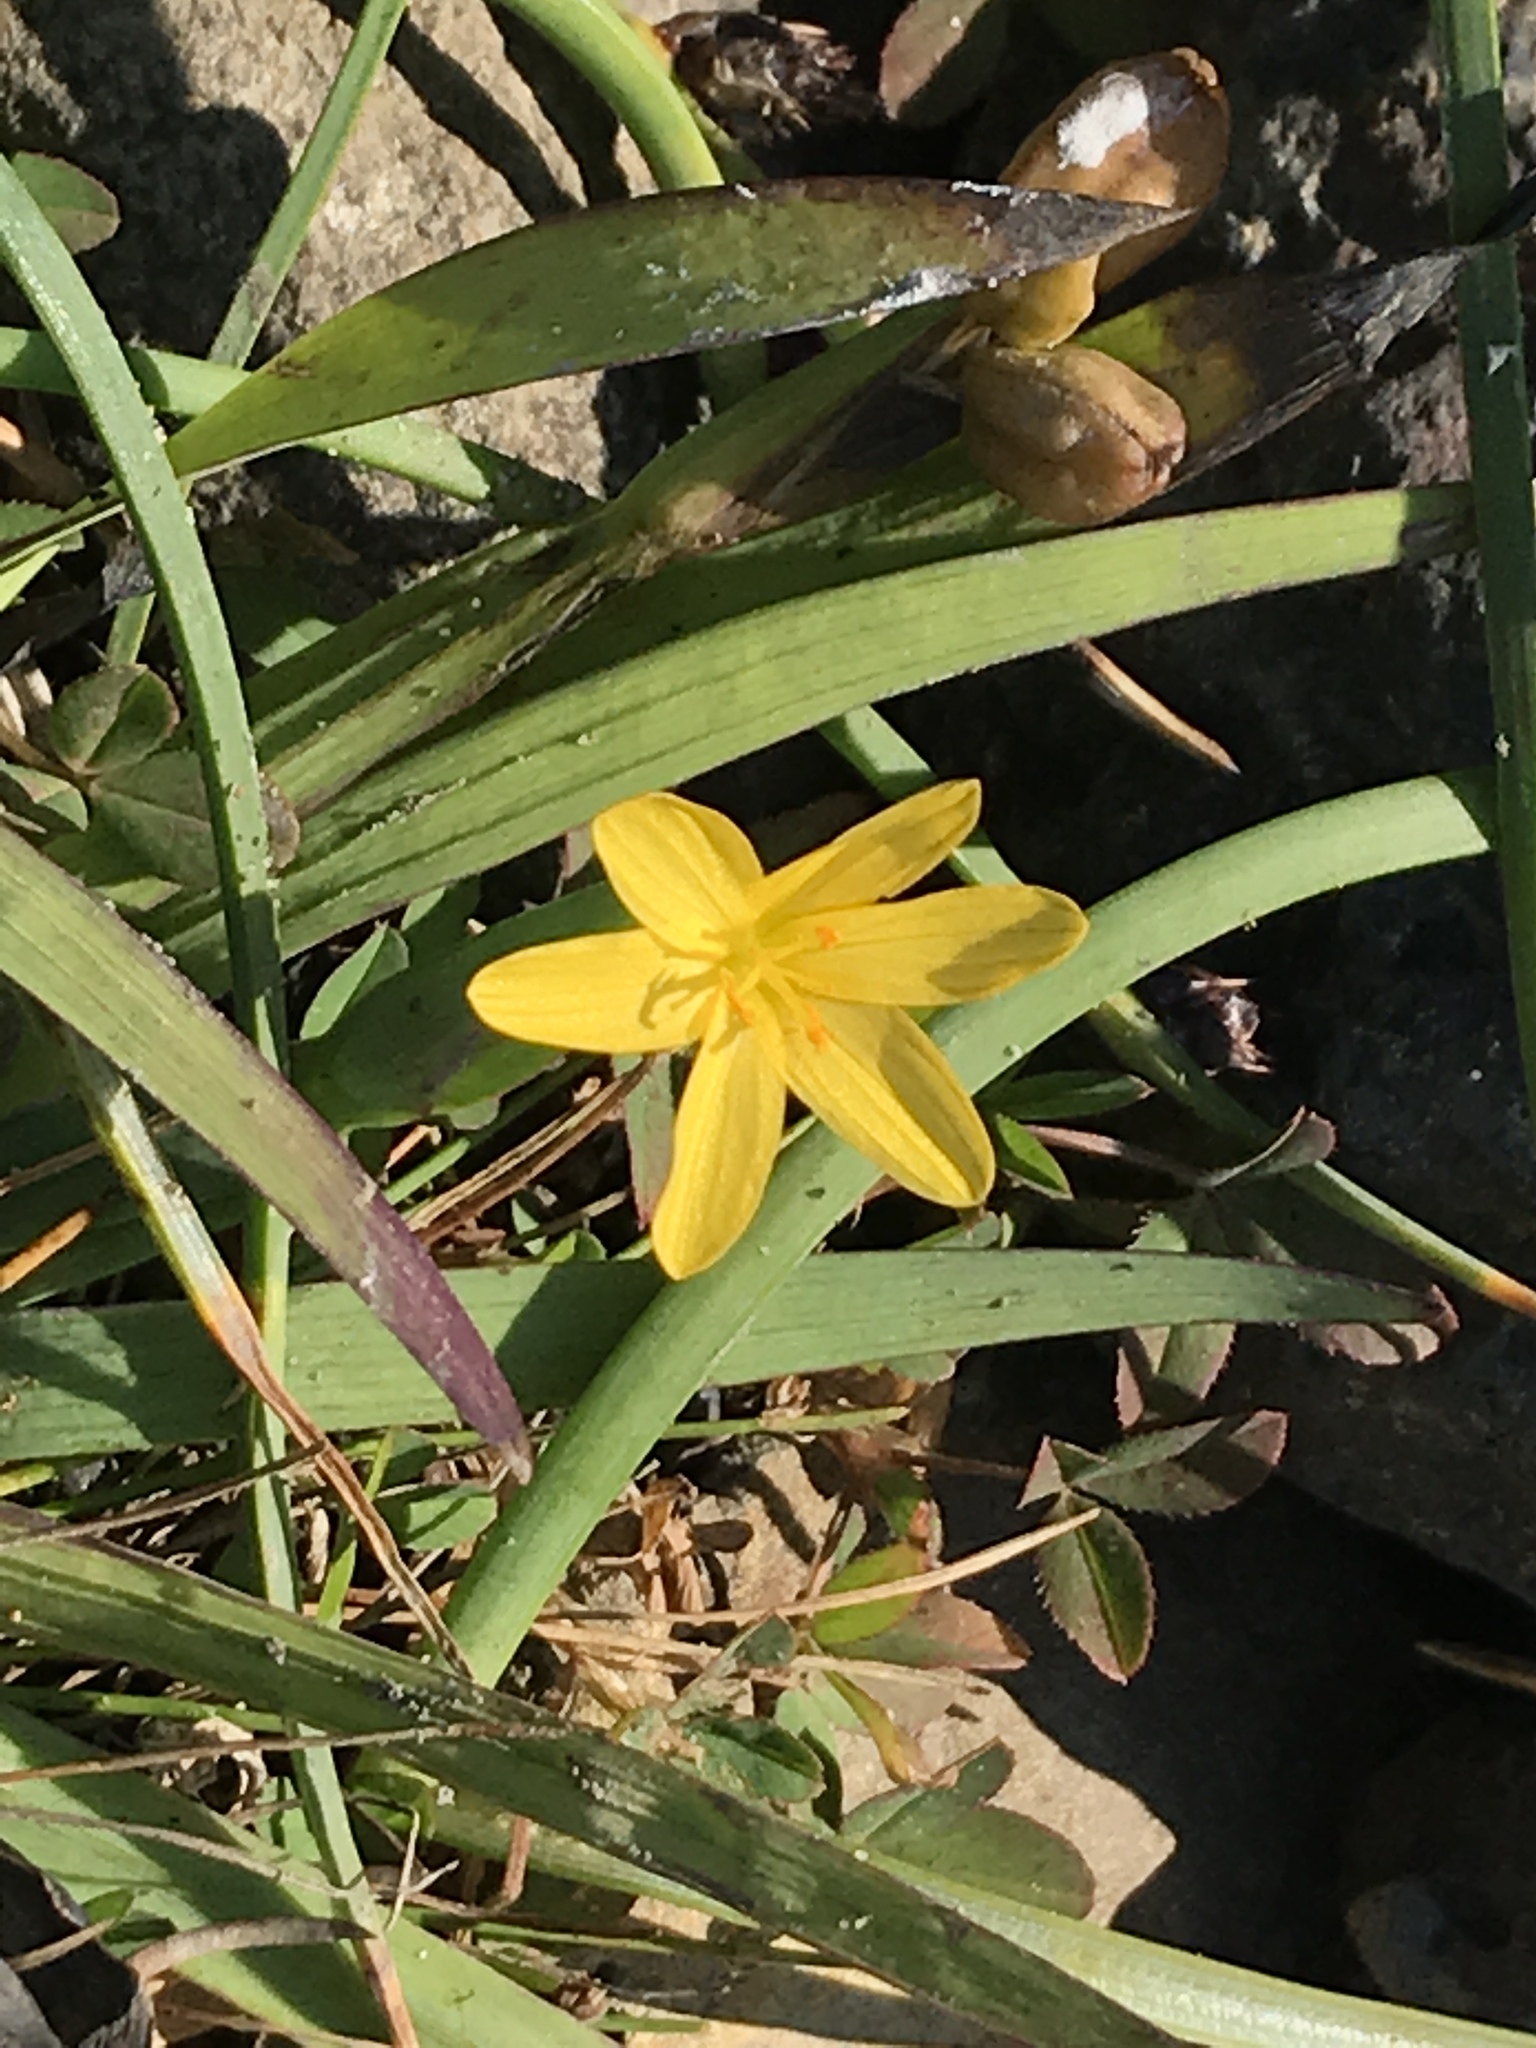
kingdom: Plantae
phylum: Tracheophyta
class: Liliopsida
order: Asparagales
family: Iridaceae
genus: Sisyrinchium
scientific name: Sisyrinchium californicum
